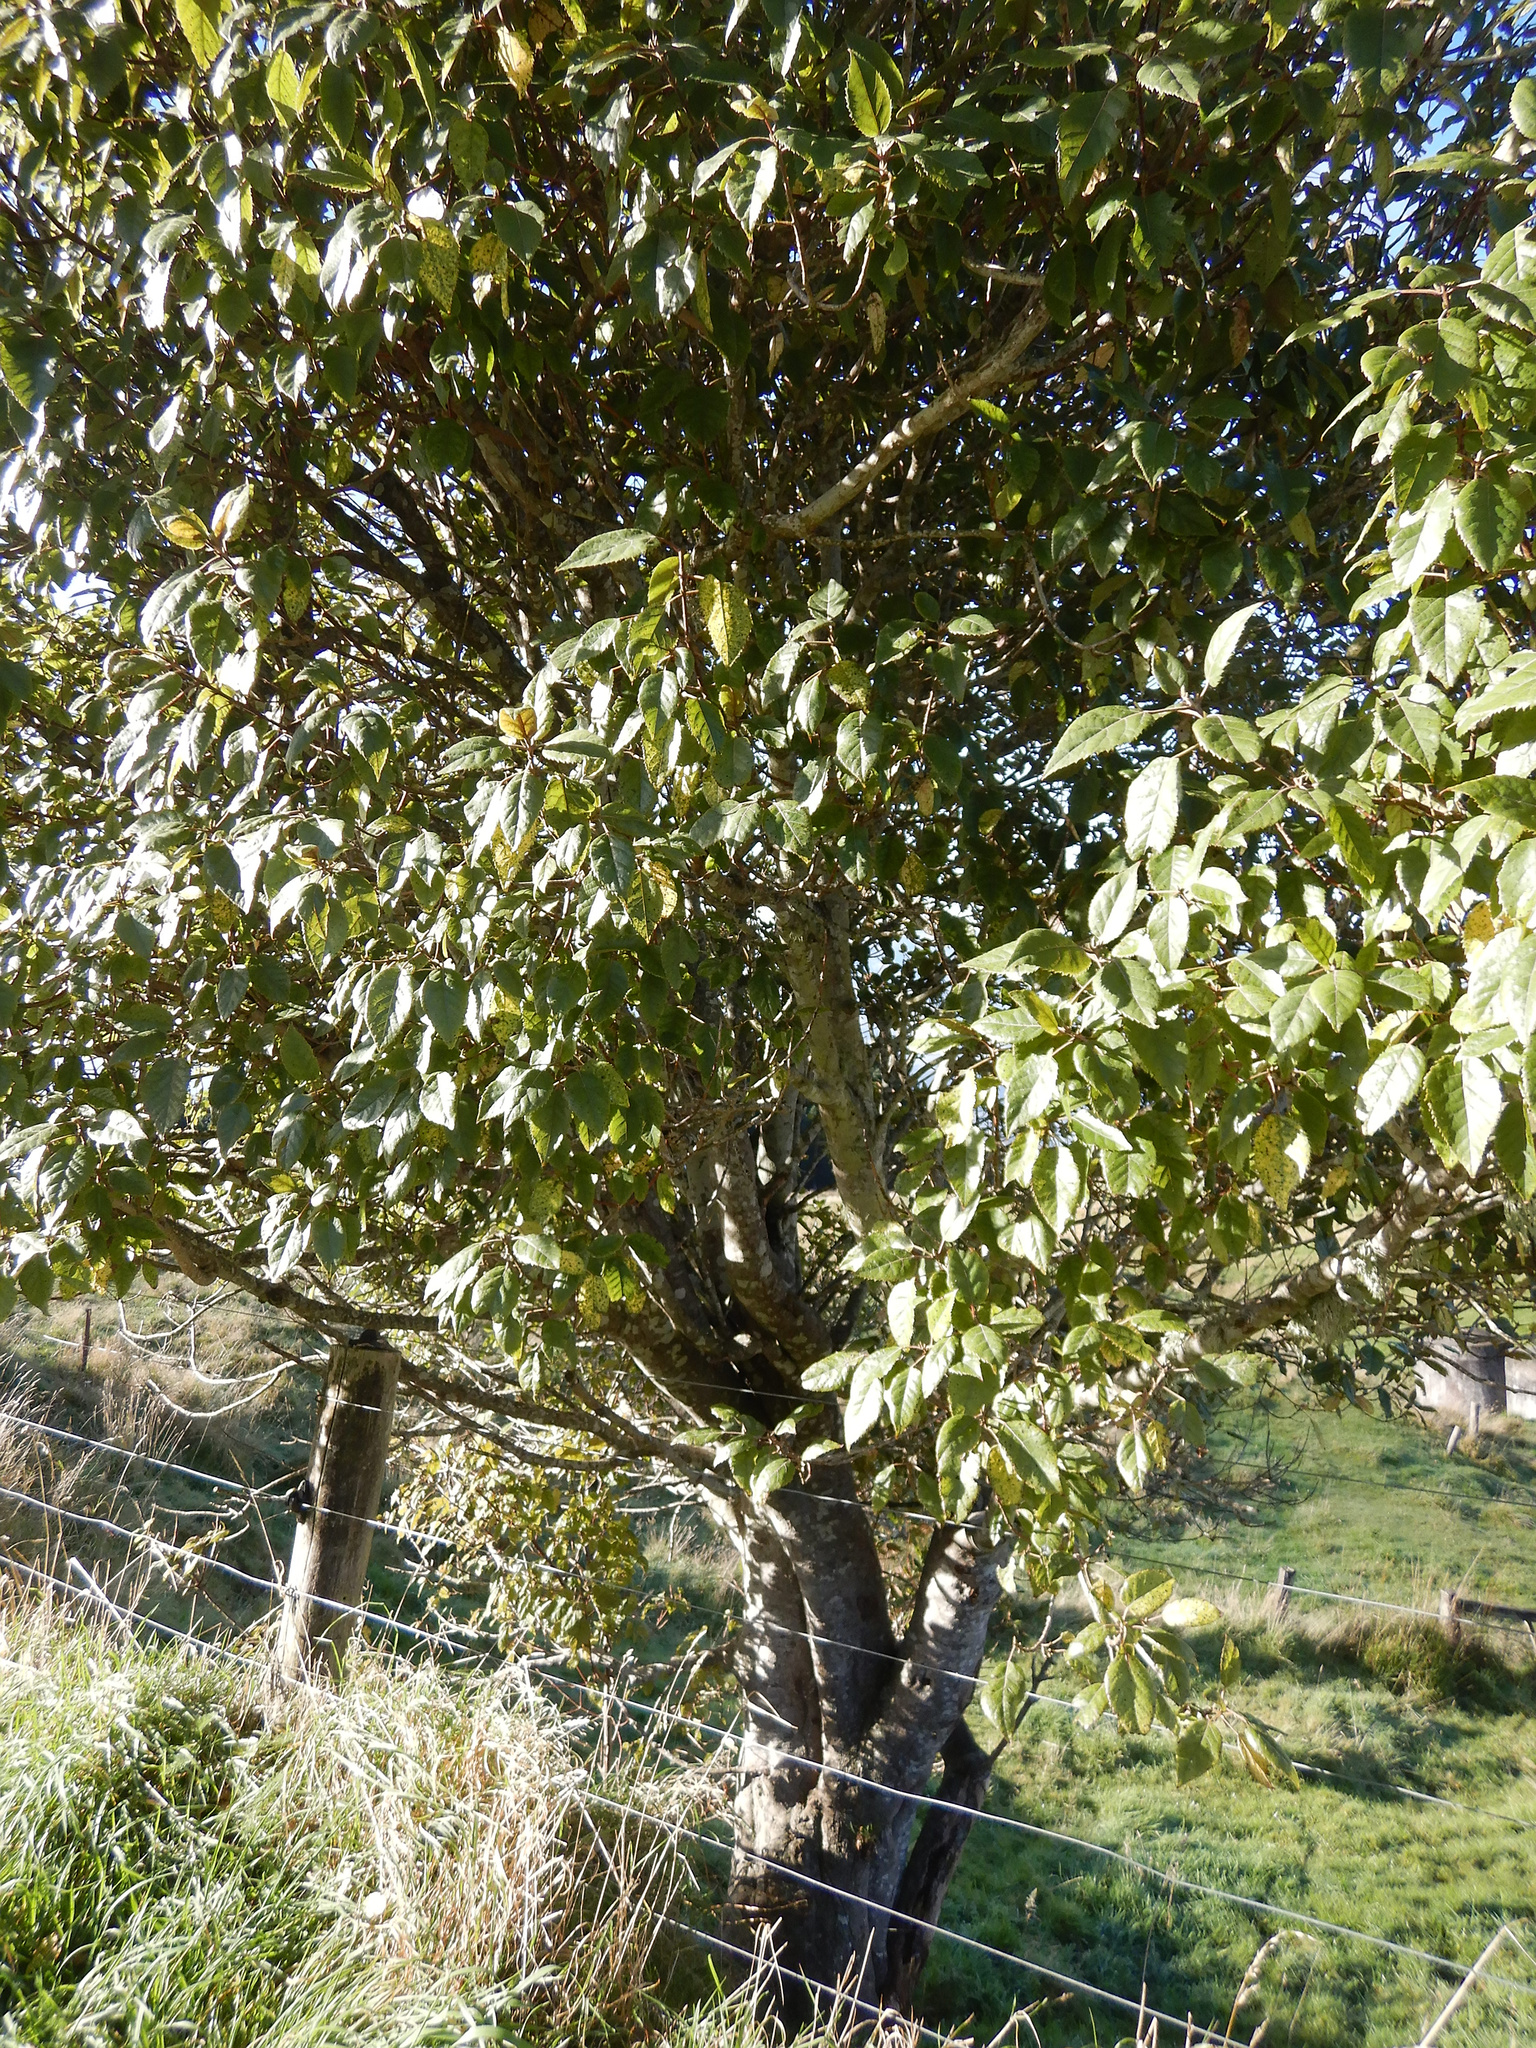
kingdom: Plantae
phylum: Tracheophyta
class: Magnoliopsida
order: Oxalidales
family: Elaeocarpaceae
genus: Aristotelia
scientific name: Aristotelia serrata
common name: New zealand wineberry
